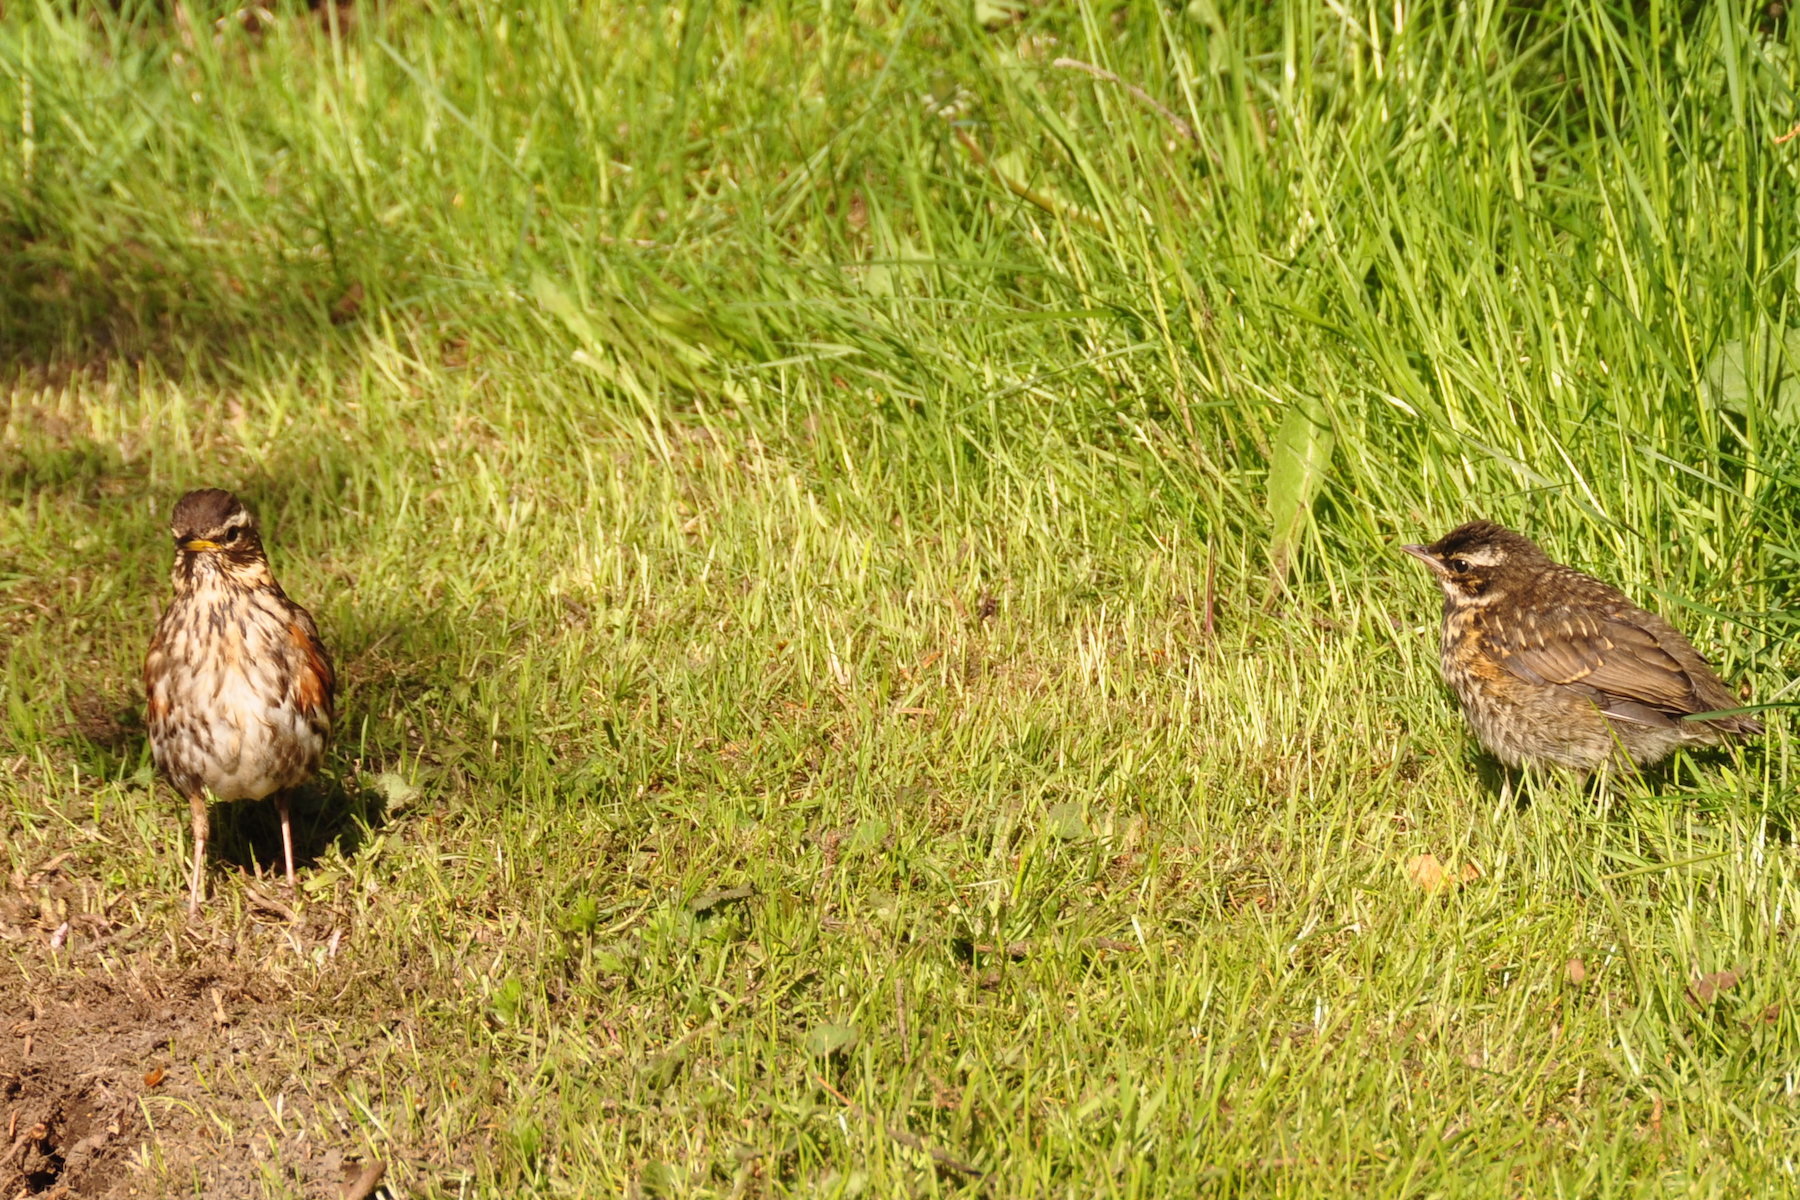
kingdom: Animalia
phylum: Chordata
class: Aves
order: Passeriformes
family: Turdidae
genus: Turdus
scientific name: Turdus iliacus
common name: Redwing
